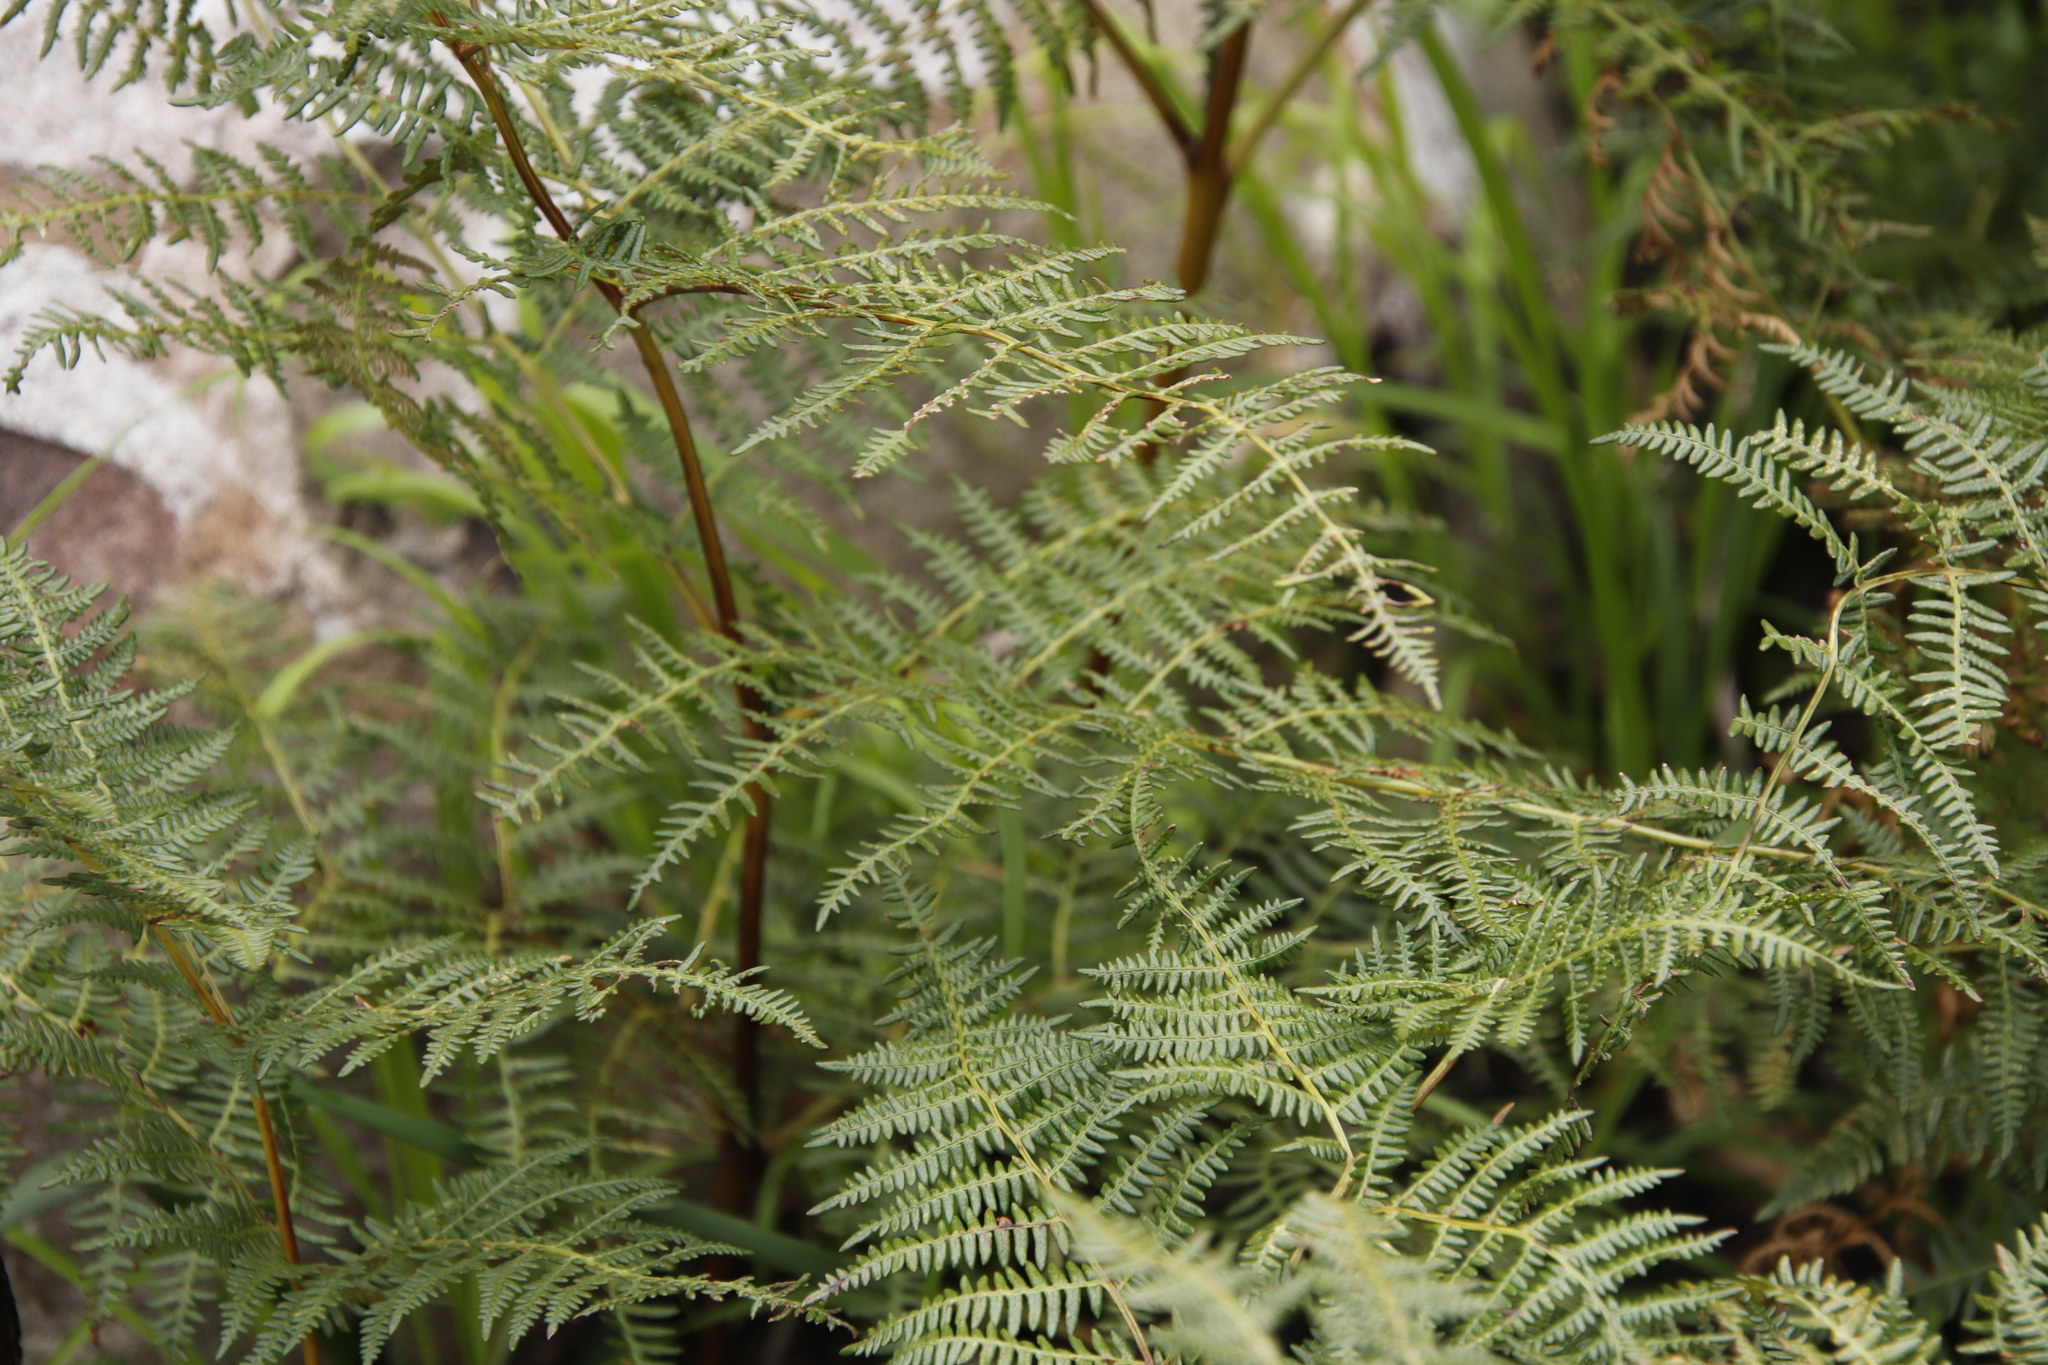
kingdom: Plantae
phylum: Tracheophyta
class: Polypodiopsida
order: Polypodiales
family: Dennstaedtiaceae
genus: Pteridium
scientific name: Pteridium aquilinum
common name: Bracken
